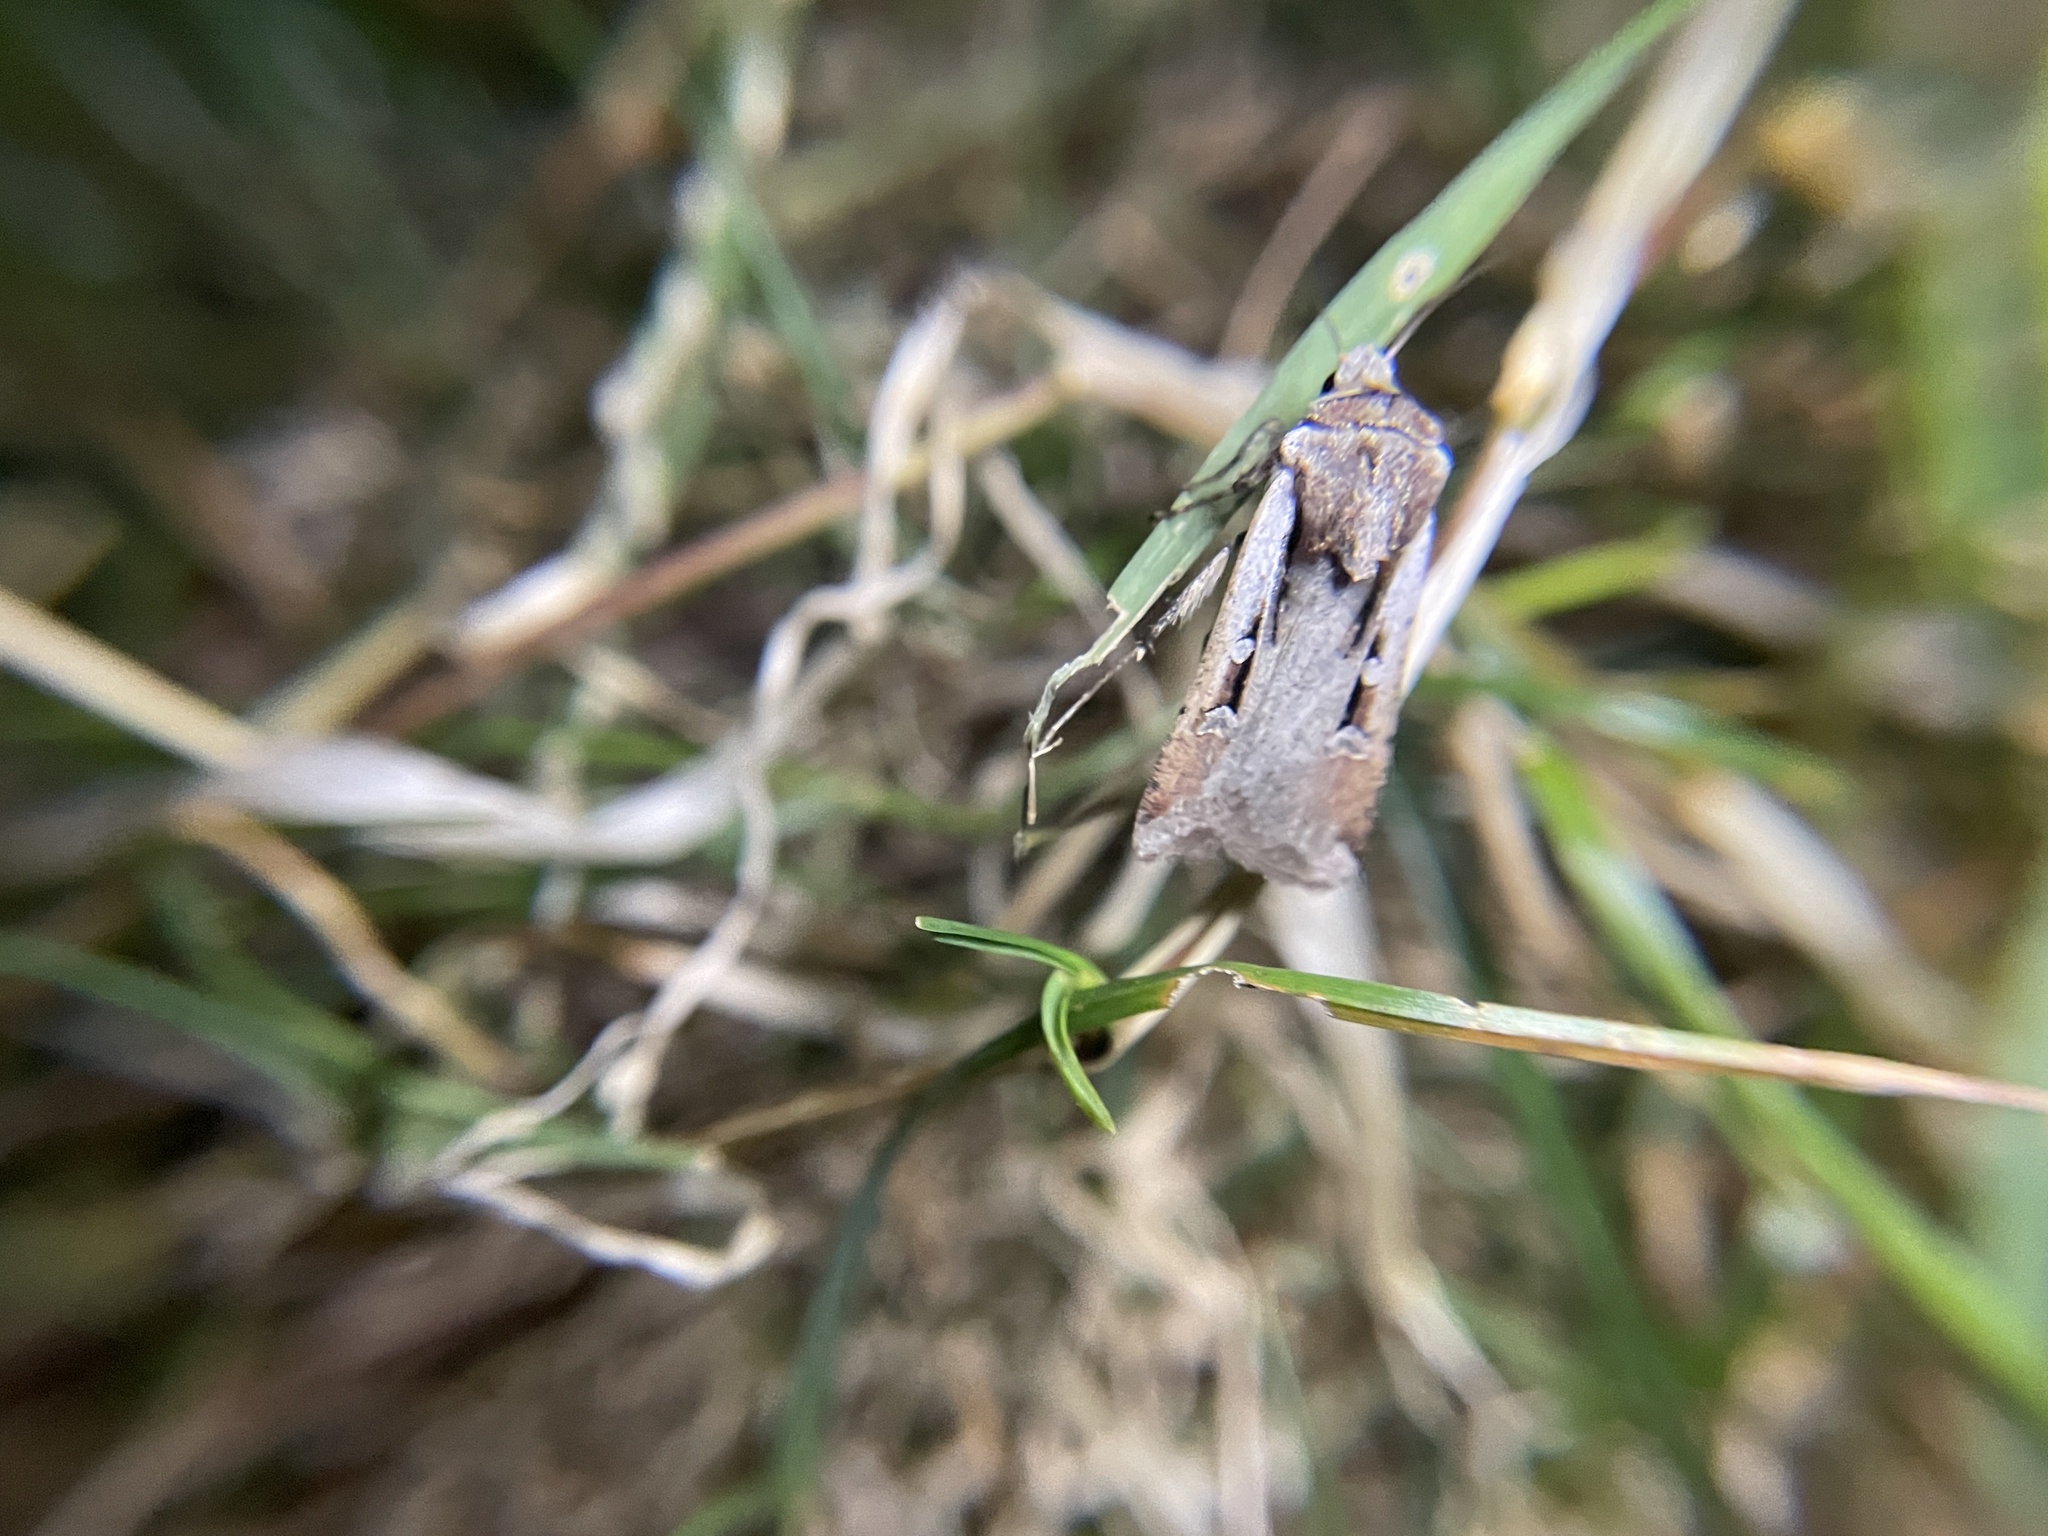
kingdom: Animalia
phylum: Arthropoda
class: Insecta
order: Lepidoptera
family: Noctuidae
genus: Hemieuxoa
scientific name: Hemieuxoa rudens
